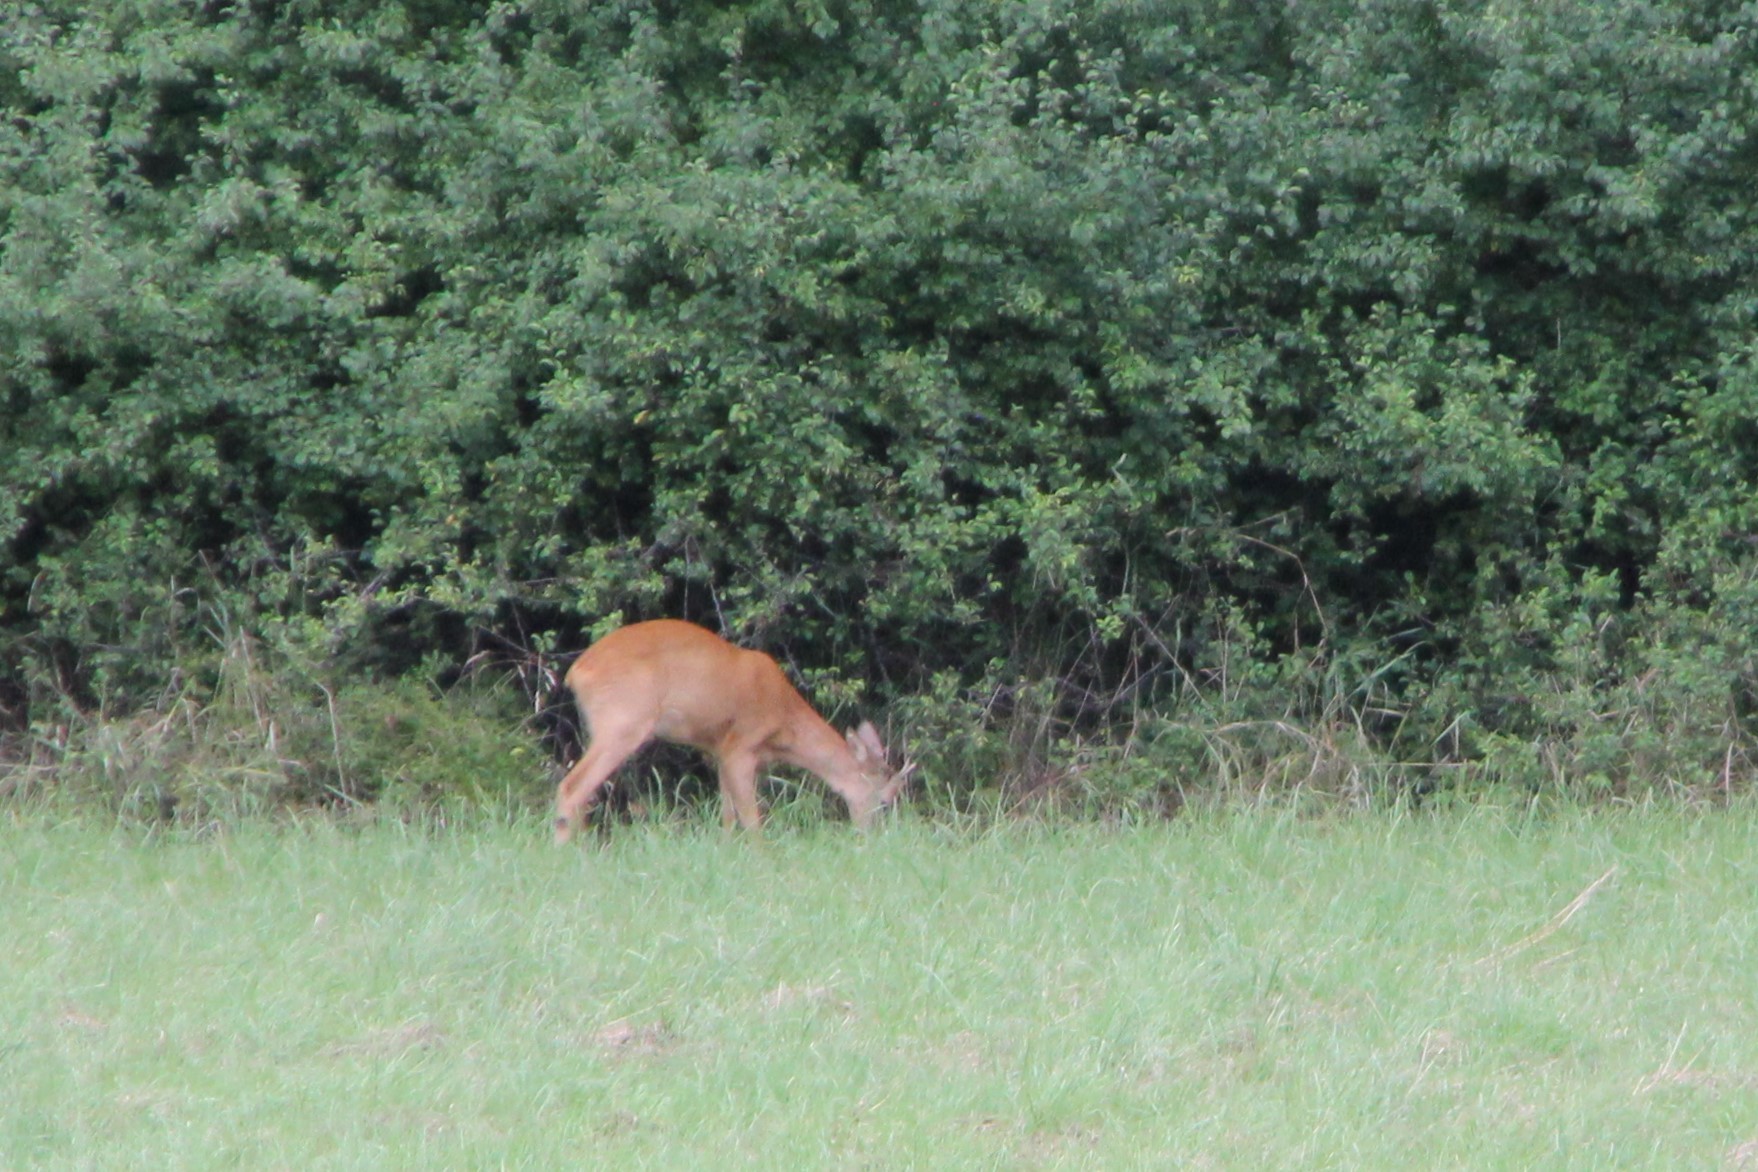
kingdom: Animalia
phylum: Chordata
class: Mammalia
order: Artiodactyla
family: Cervidae
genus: Capreolus
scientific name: Capreolus capreolus
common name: Western roe deer
